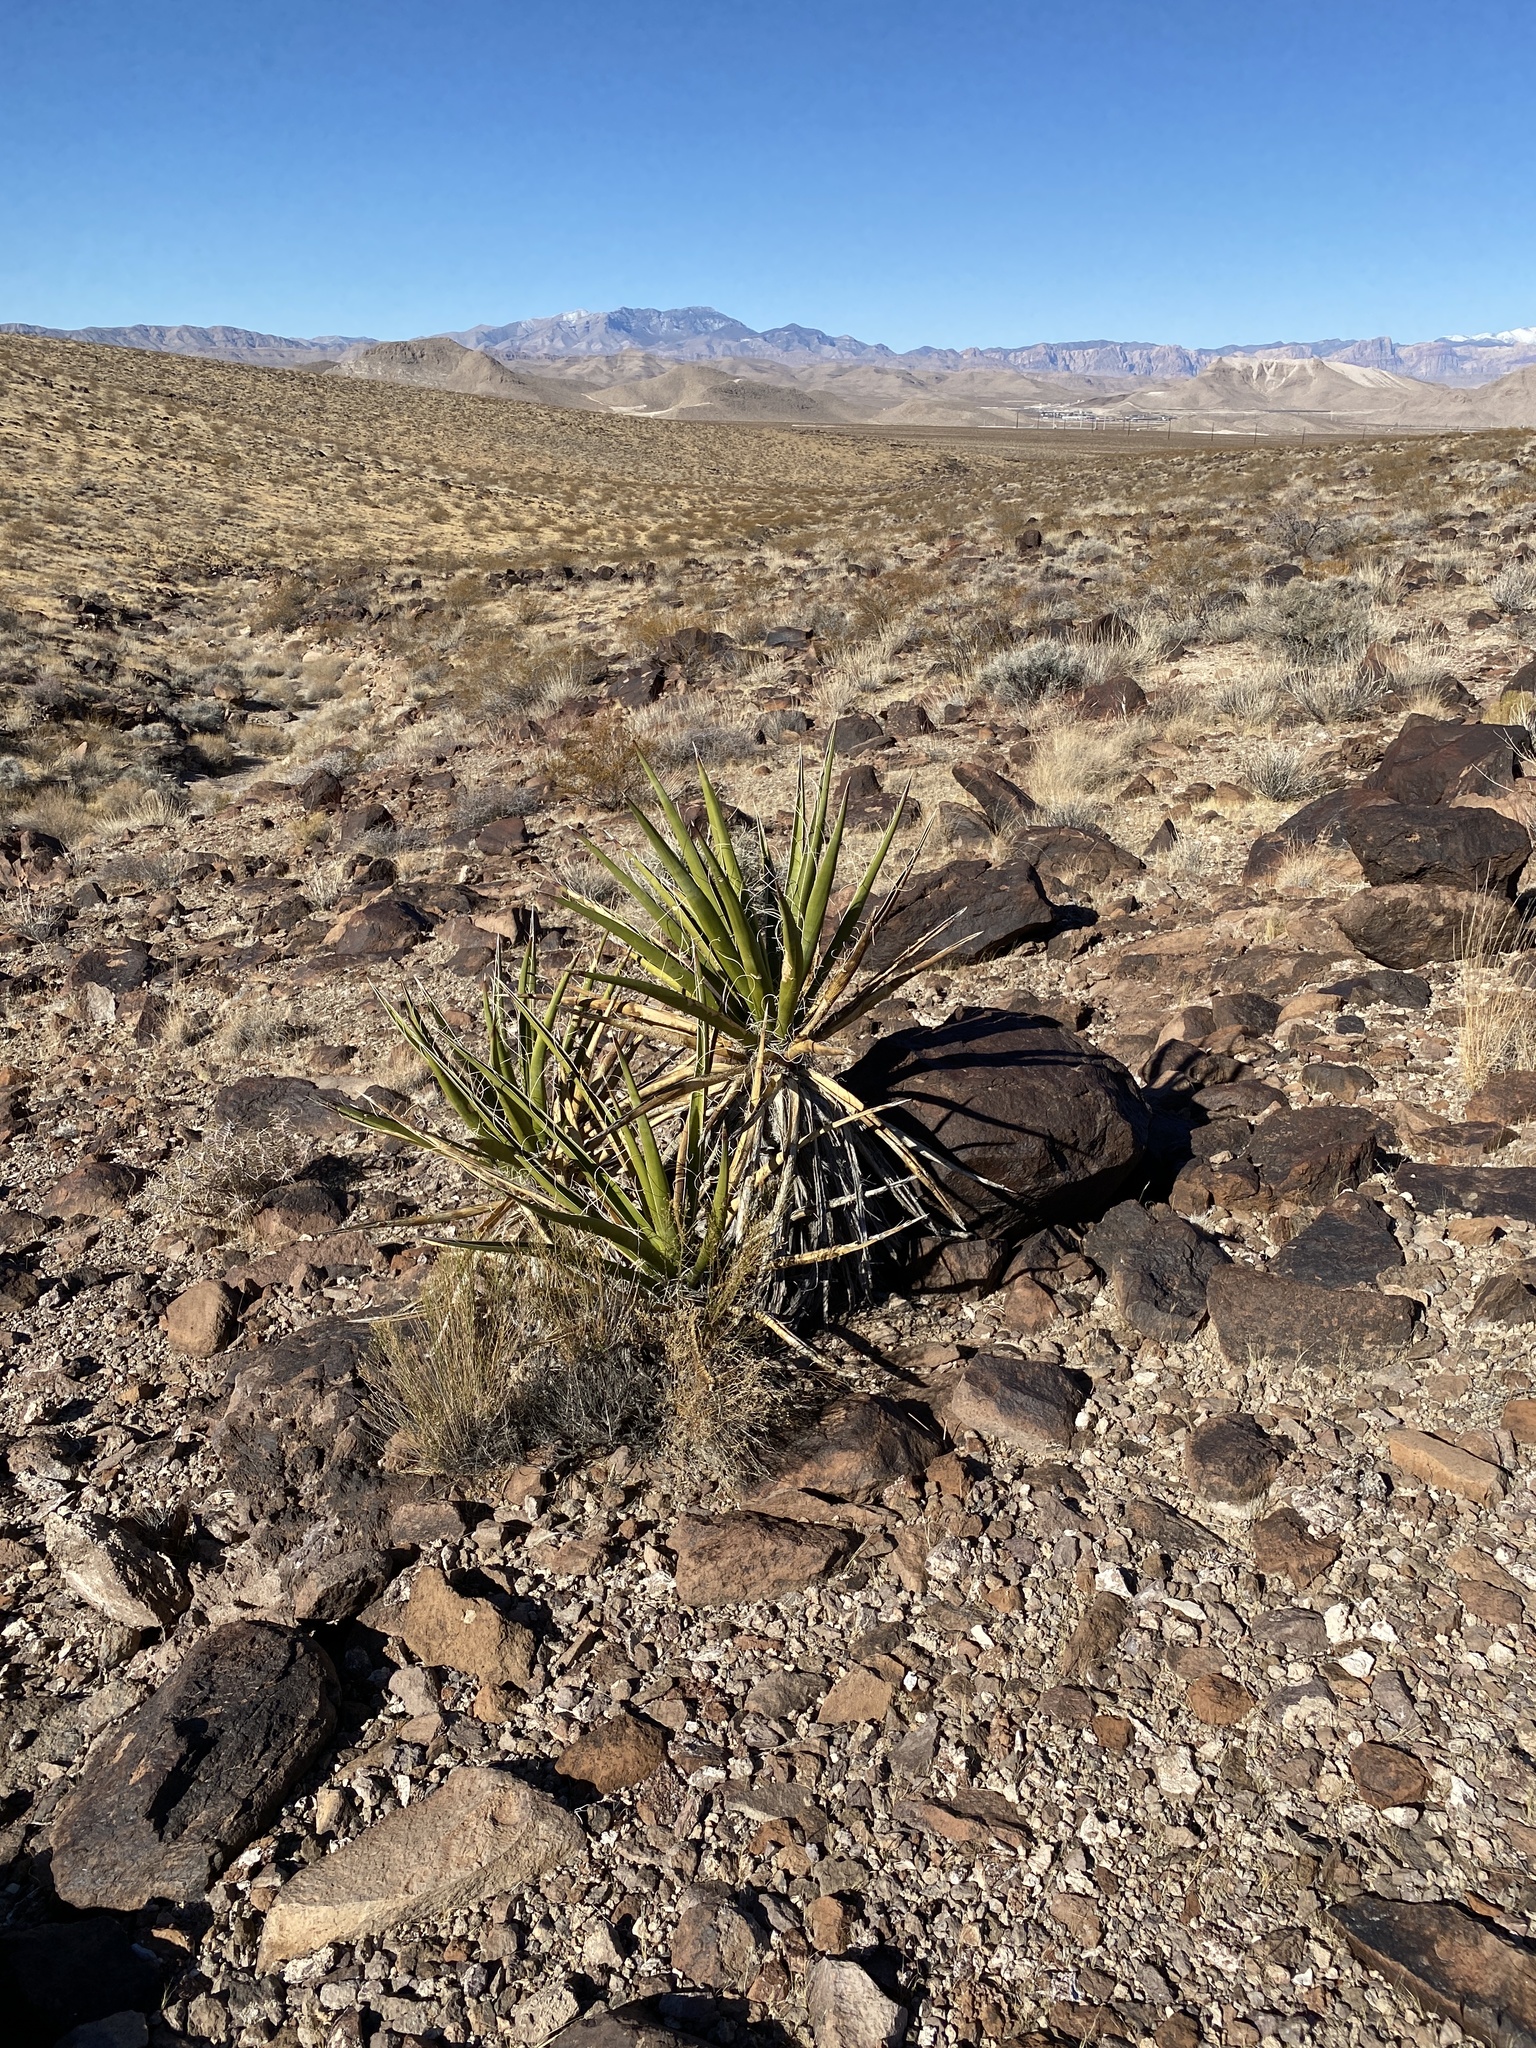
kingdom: Plantae
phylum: Tracheophyta
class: Liliopsida
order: Asparagales
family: Asparagaceae
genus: Yucca
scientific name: Yucca schidigera
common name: Mojave yucca
